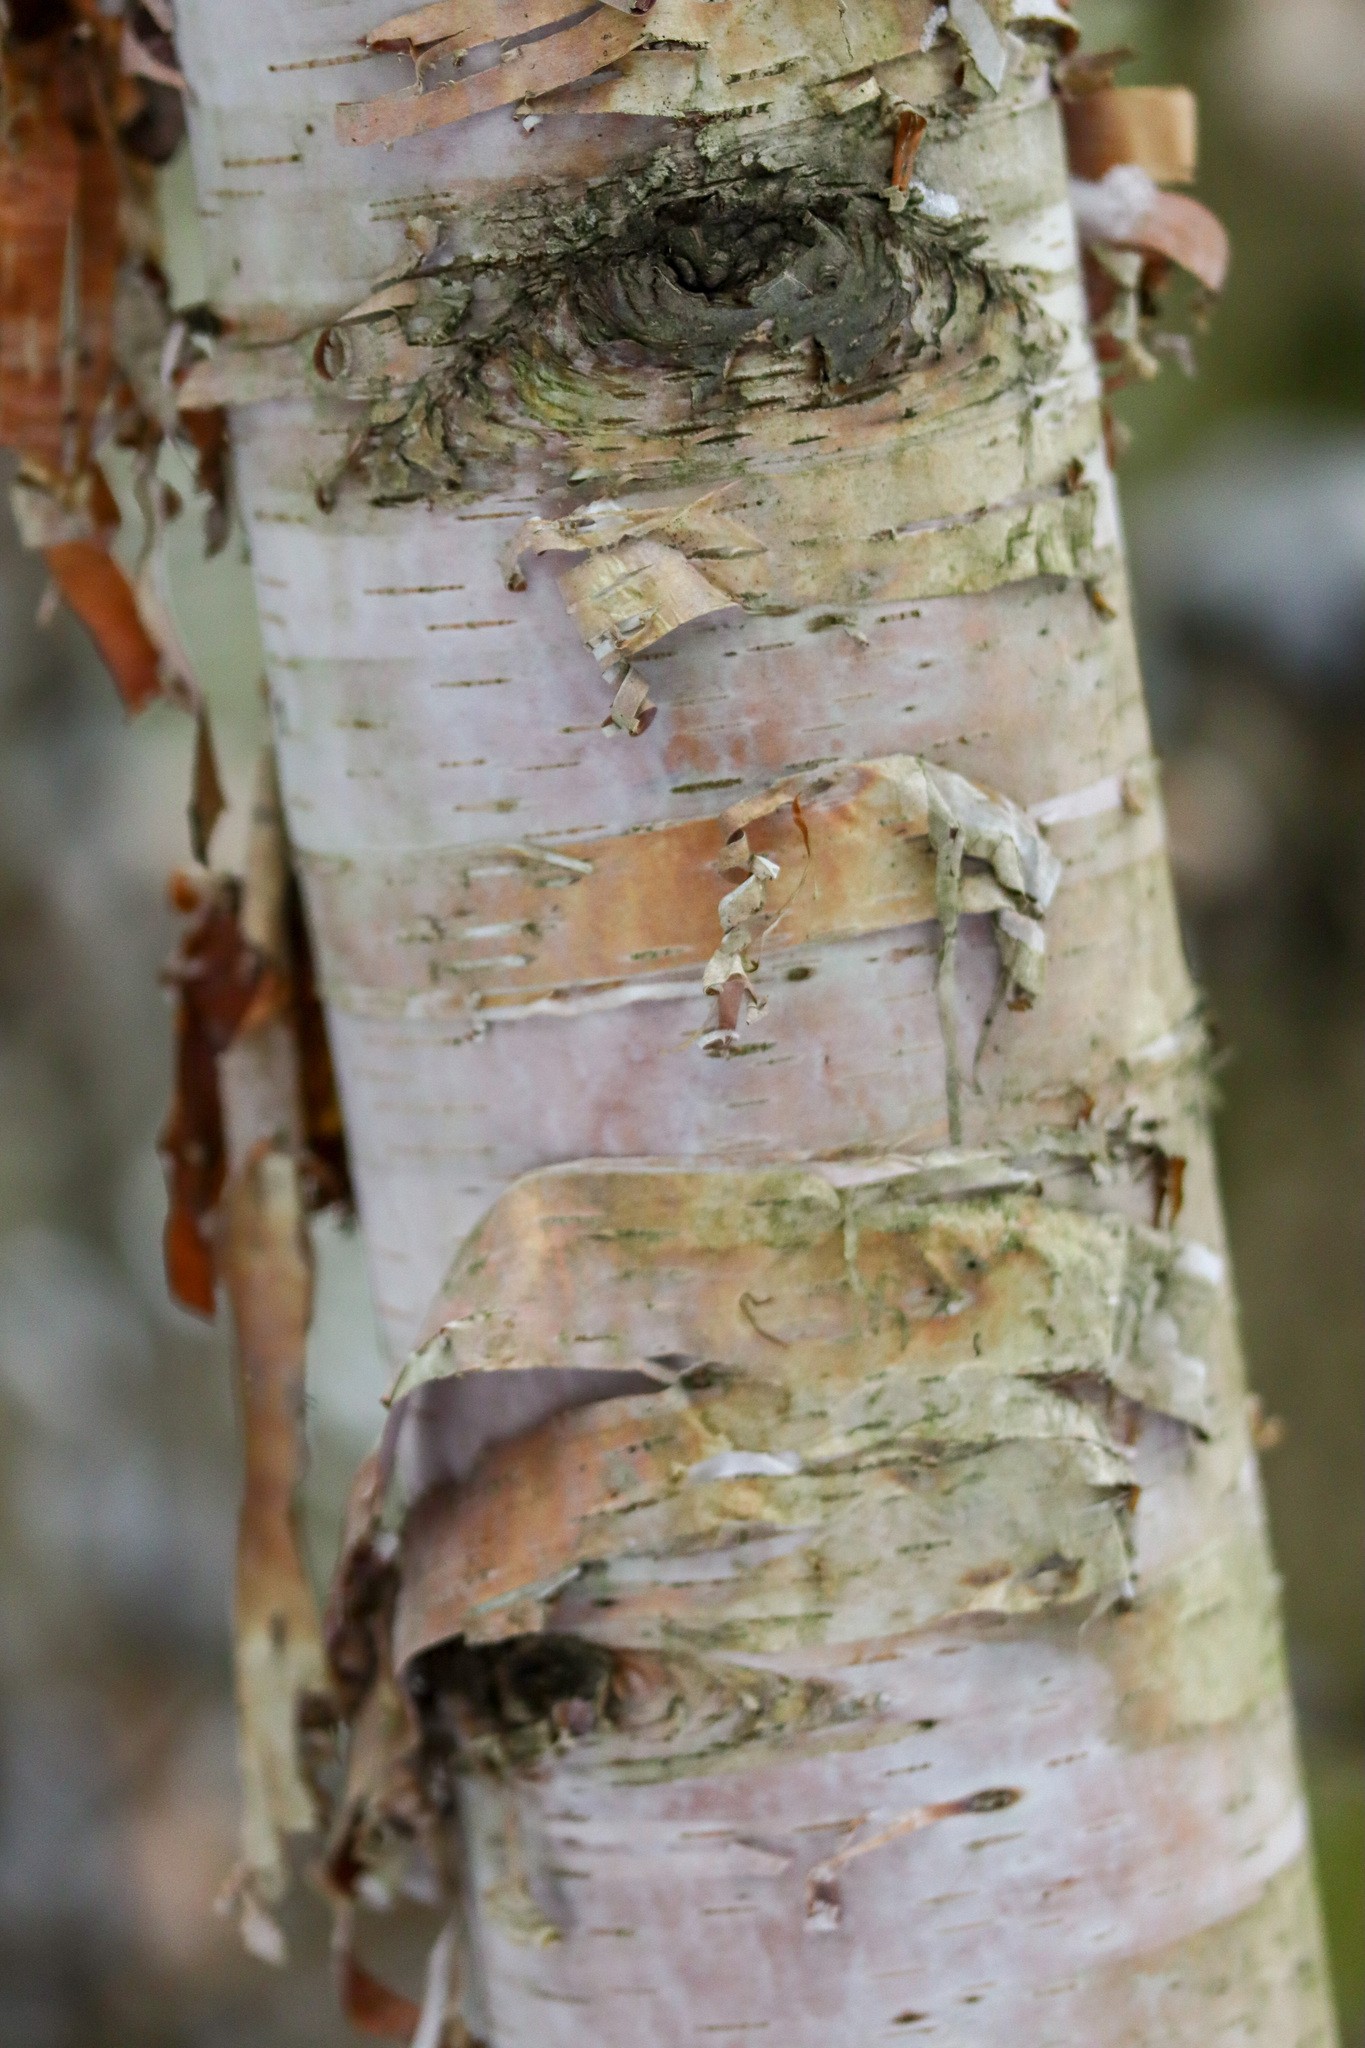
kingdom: Plantae
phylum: Tracheophyta
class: Magnoliopsida
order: Fagales
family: Betulaceae
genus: Betula
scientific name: Betula papyrifera
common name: Paper birch
